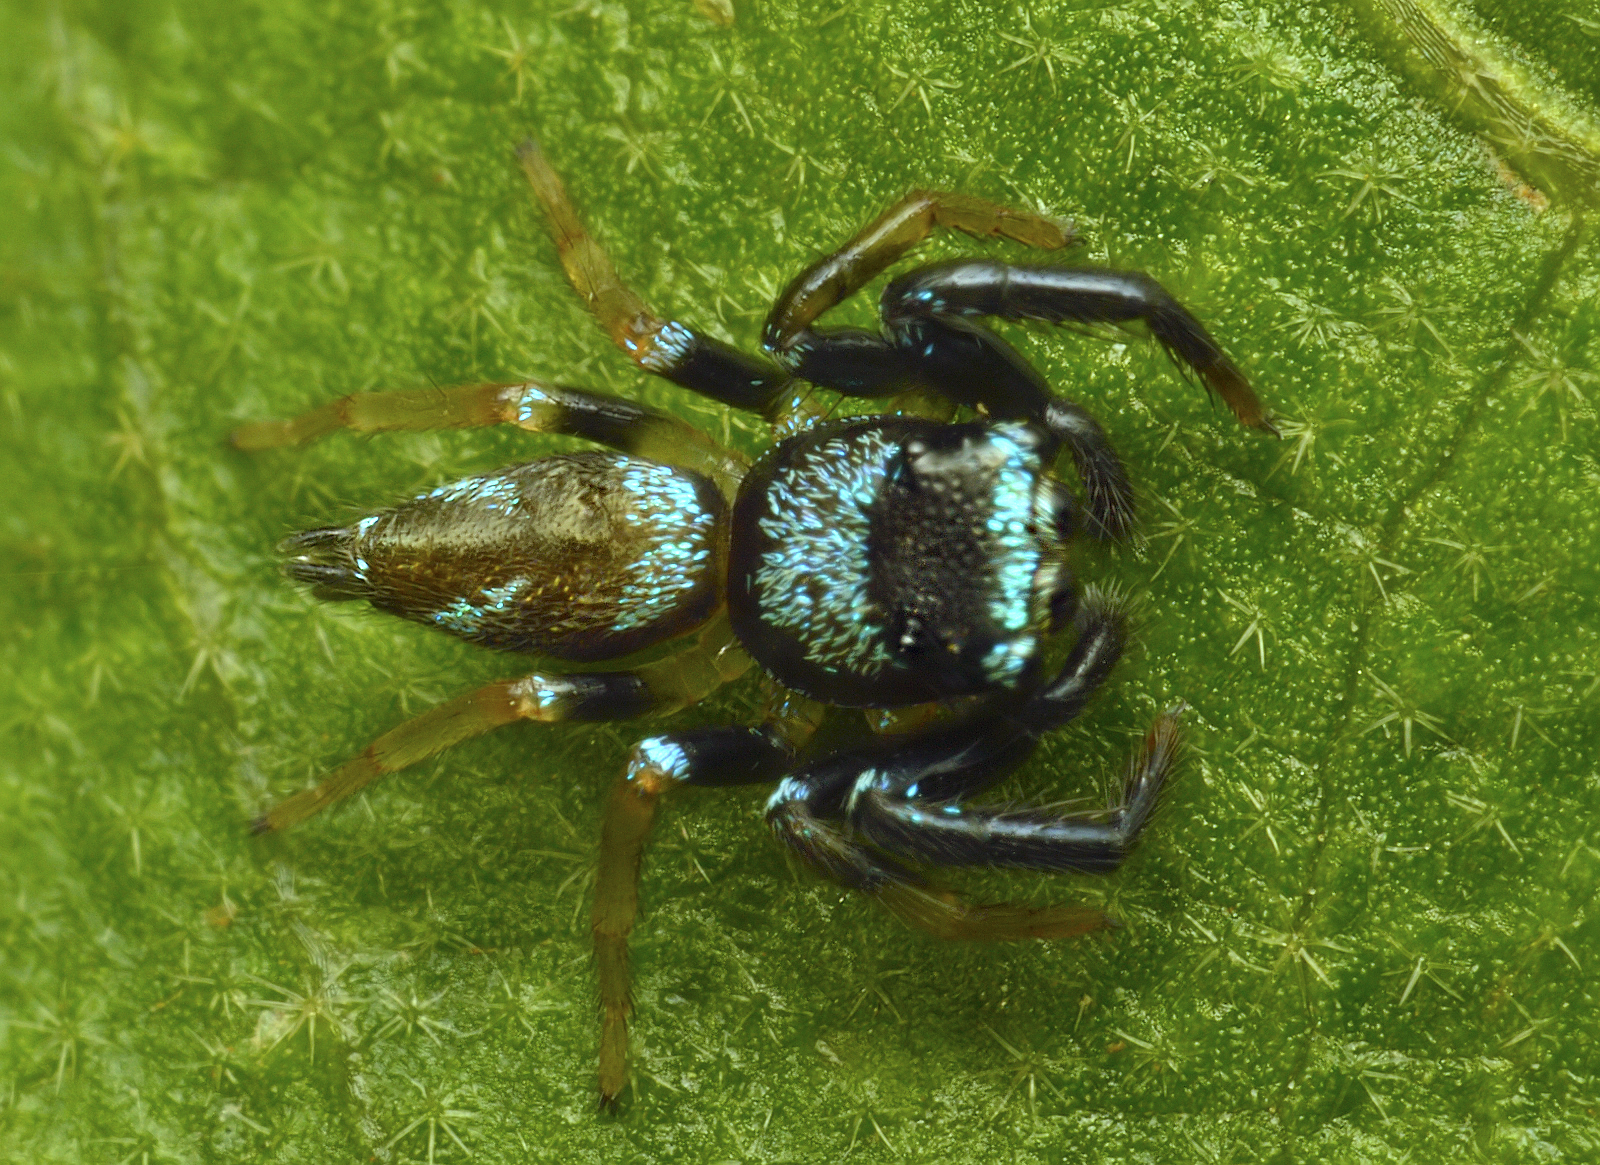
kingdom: Animalia
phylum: Arthropoda
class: Arachnida
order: Araneae
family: Salticidae
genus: Thiania
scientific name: Thiania bhamoensis
